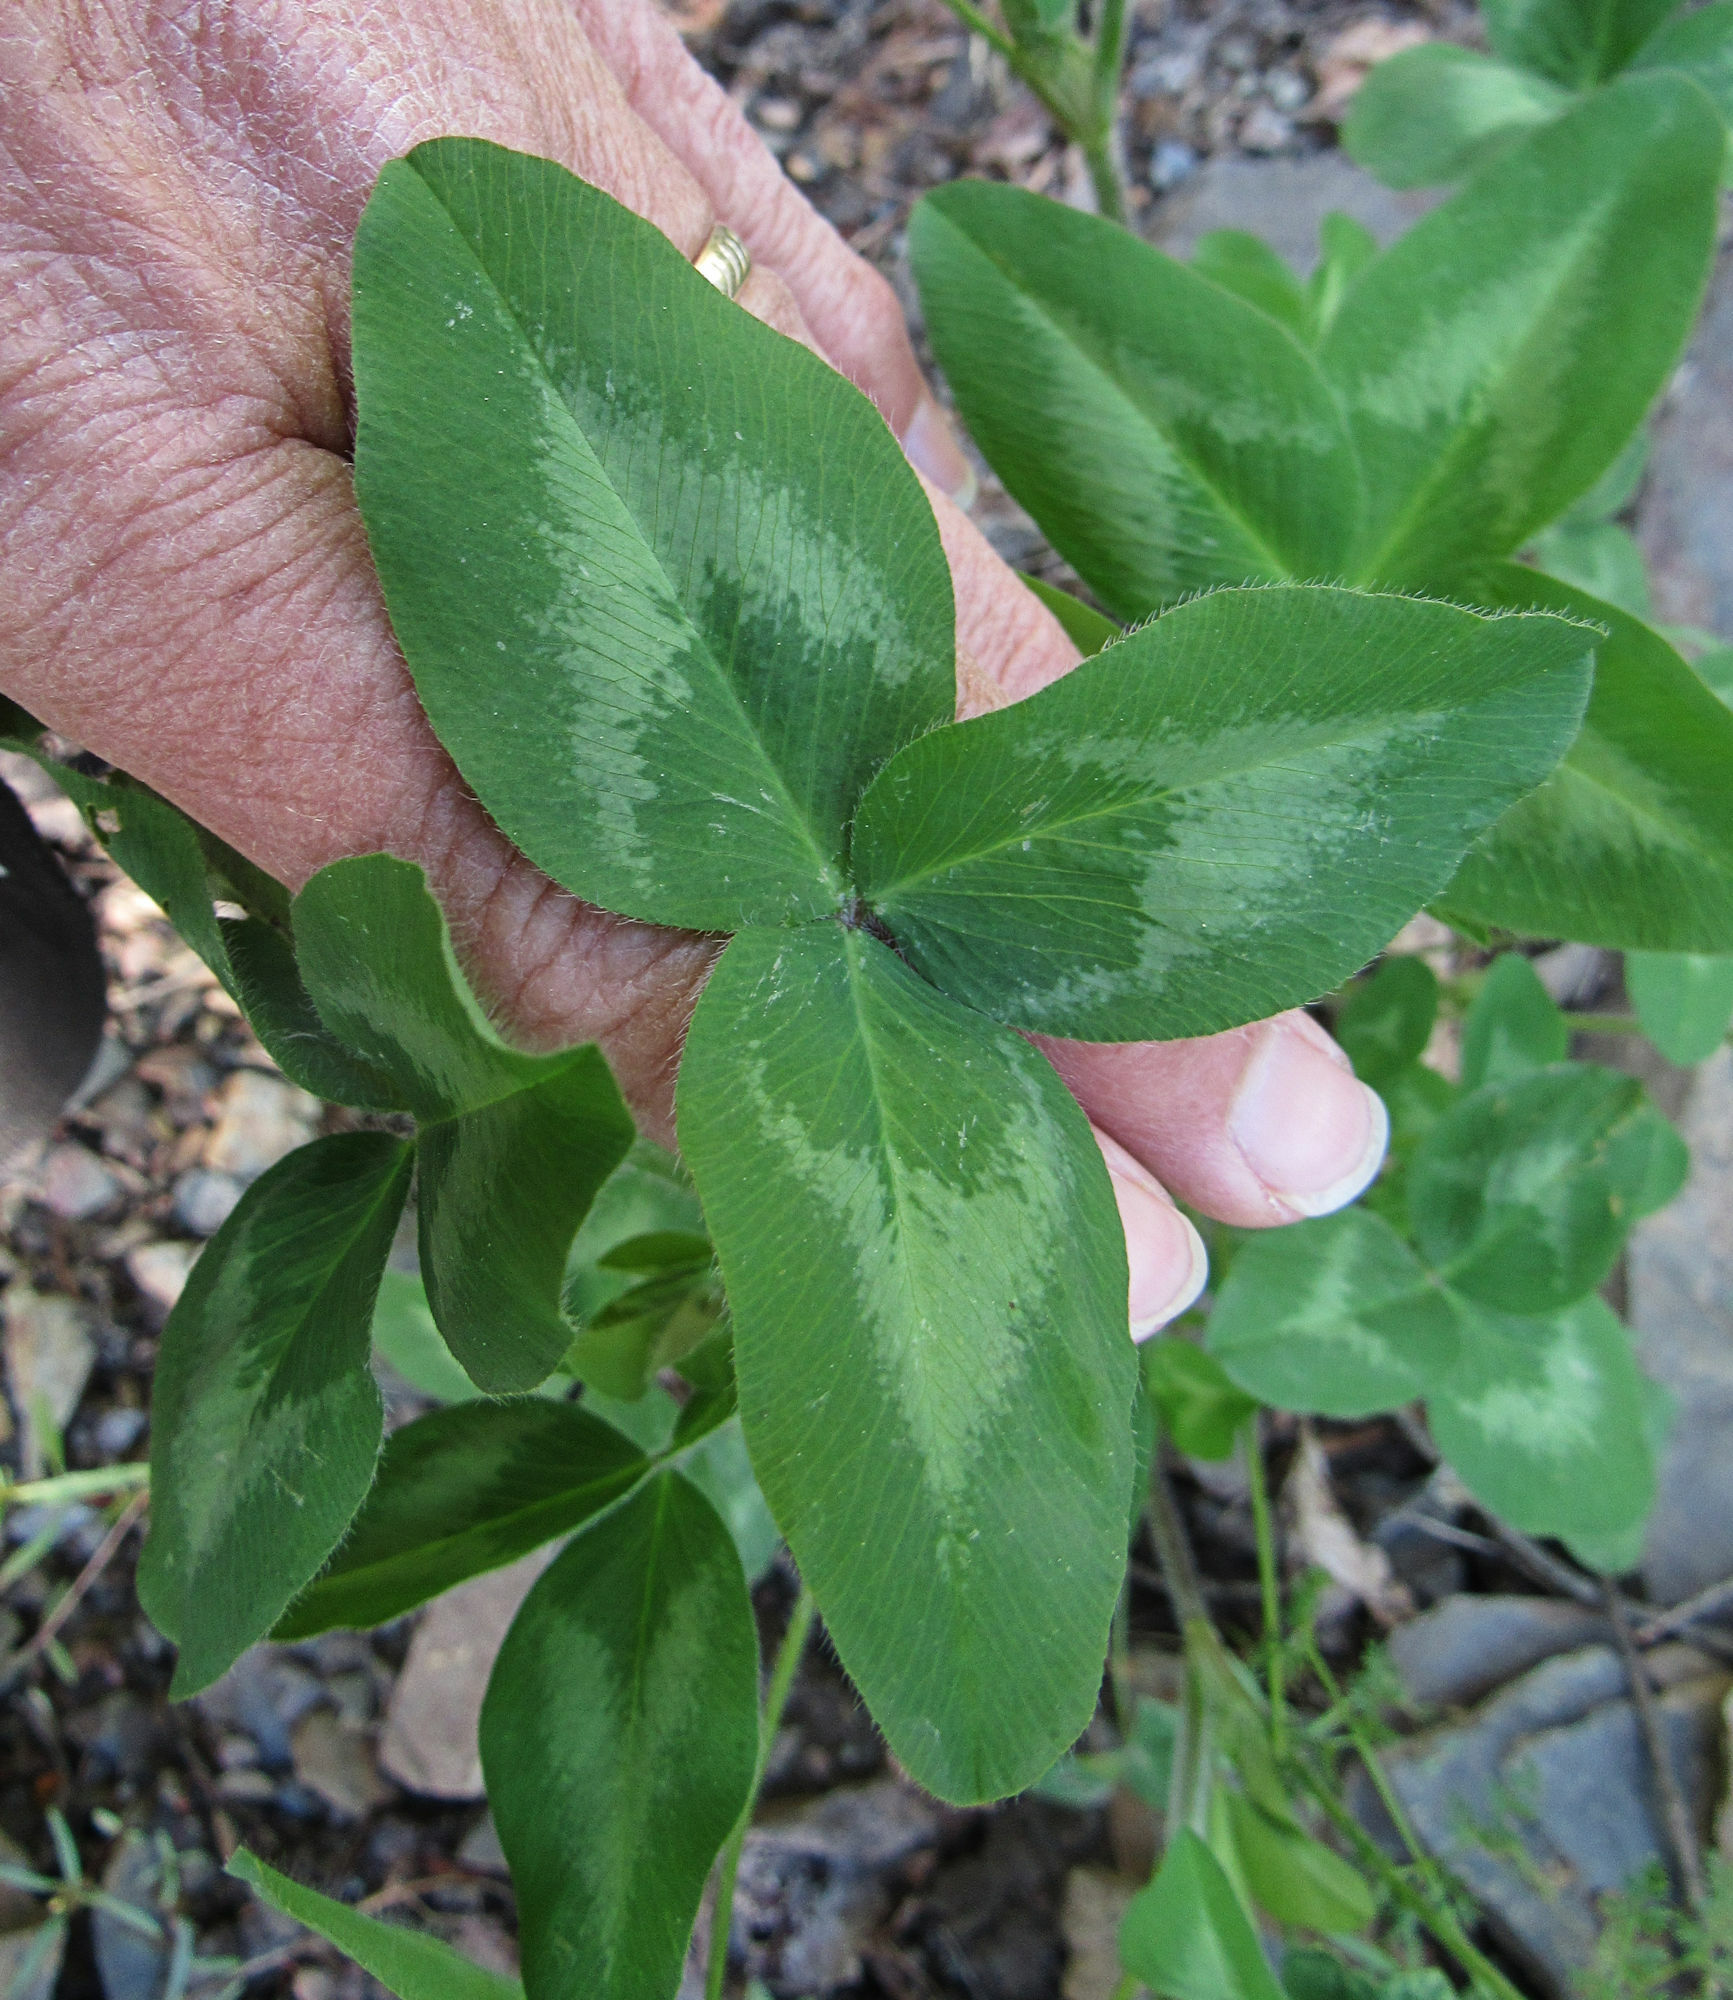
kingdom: Plantae
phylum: Tracheophyta
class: Magnoliopsida
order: Fabales
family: Fabaceae
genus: Trifolium
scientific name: Trifolium pratense
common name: Red clover
